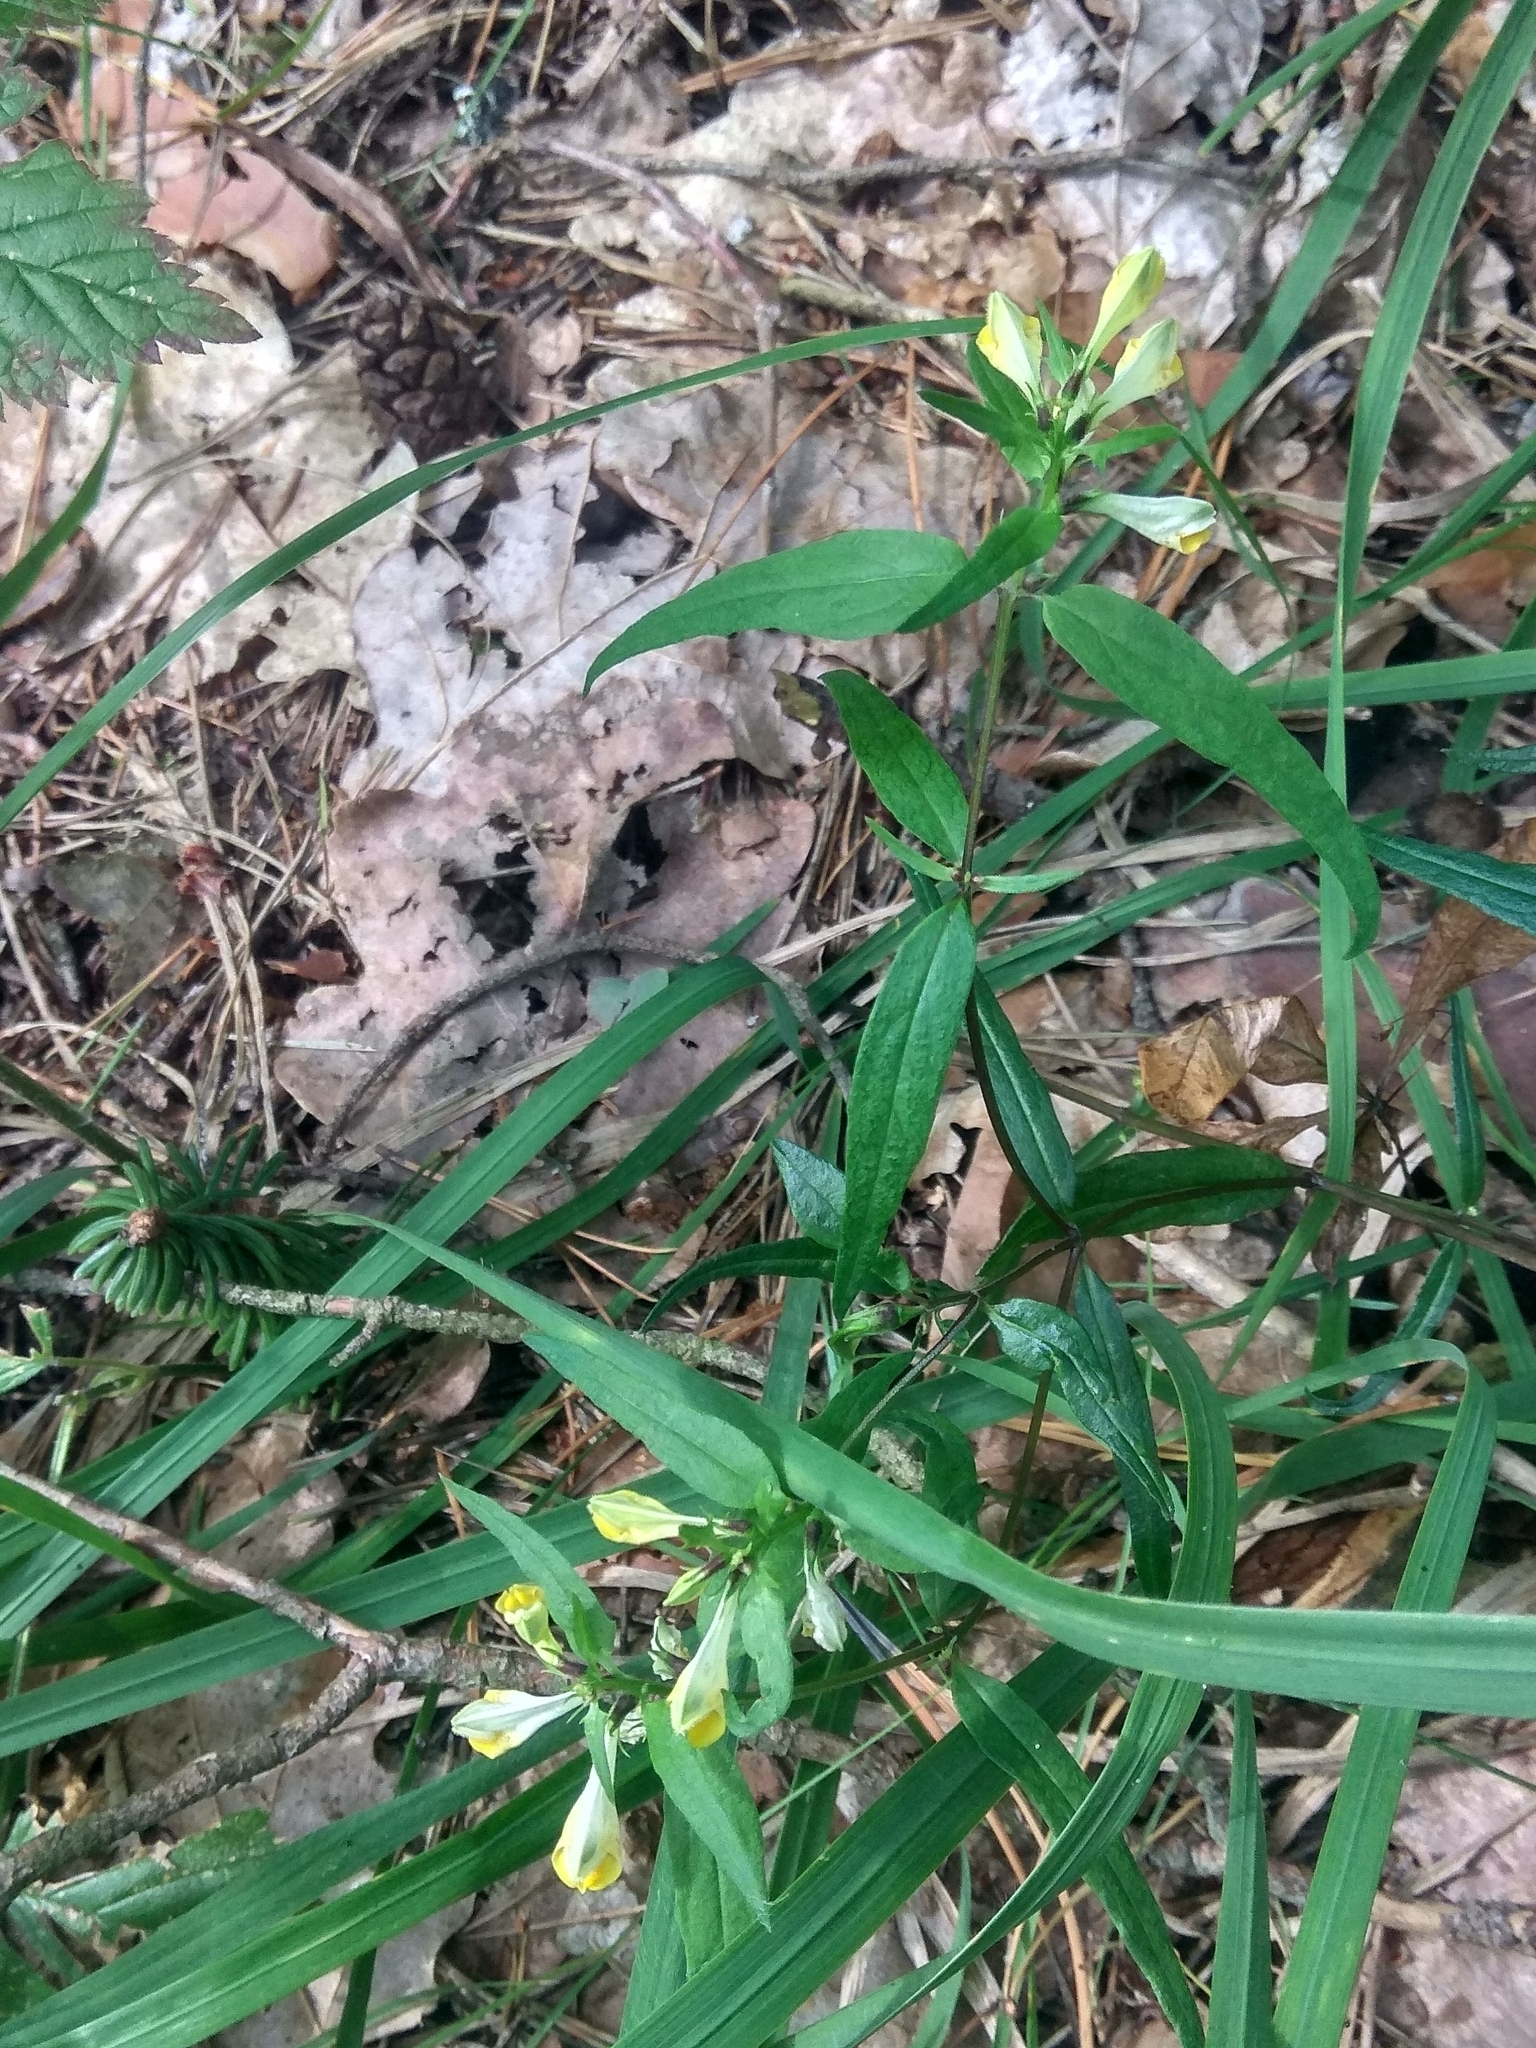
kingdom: Plantae
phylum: Tracheophyta
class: Magnoliopsida
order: Lamiales
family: Orobanchaceae
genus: Melampyrum
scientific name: Melampyrum pratense
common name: Common cow-wheat
